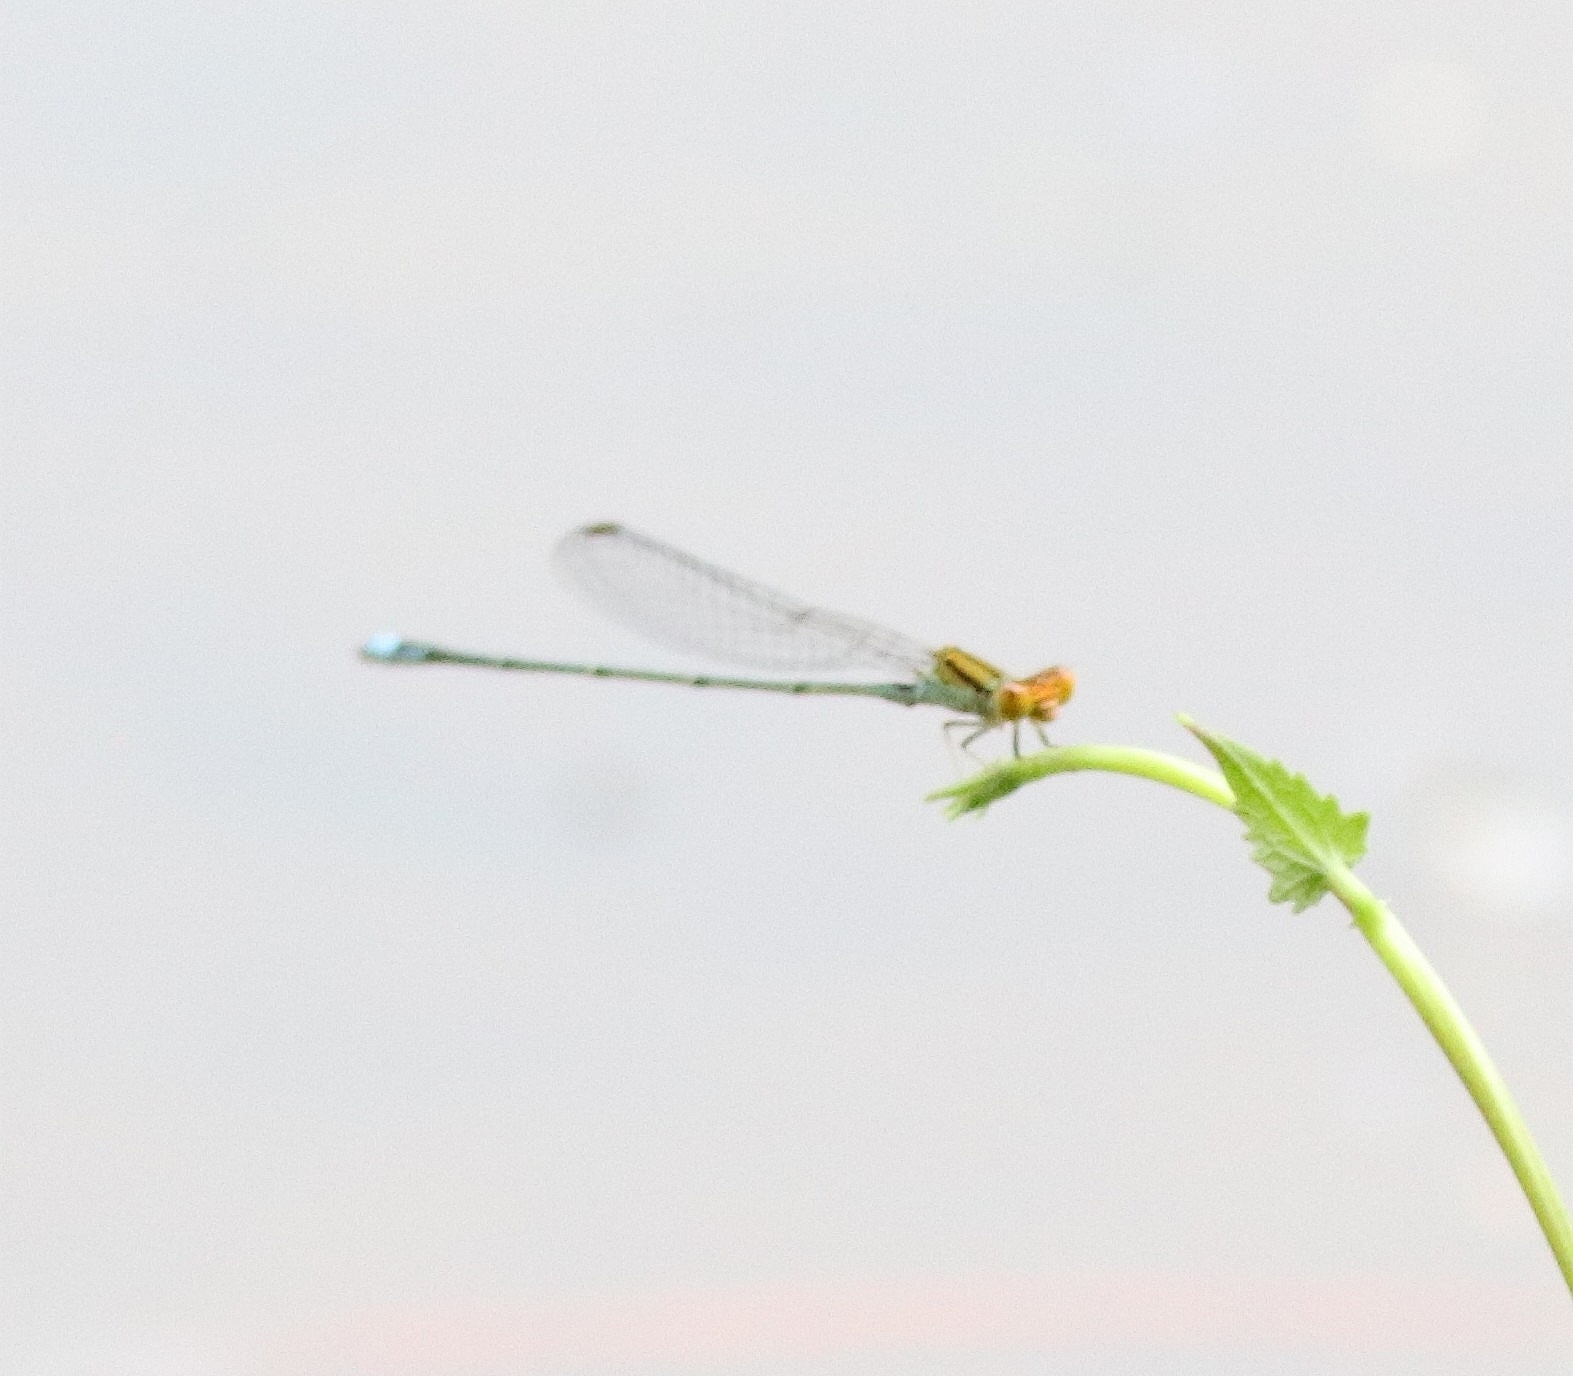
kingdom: Animalia
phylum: Arthropoda
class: Insecta
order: Odonata
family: Coenagrionidae
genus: Pseudagrion
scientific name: Pseudagrion rubriceps
